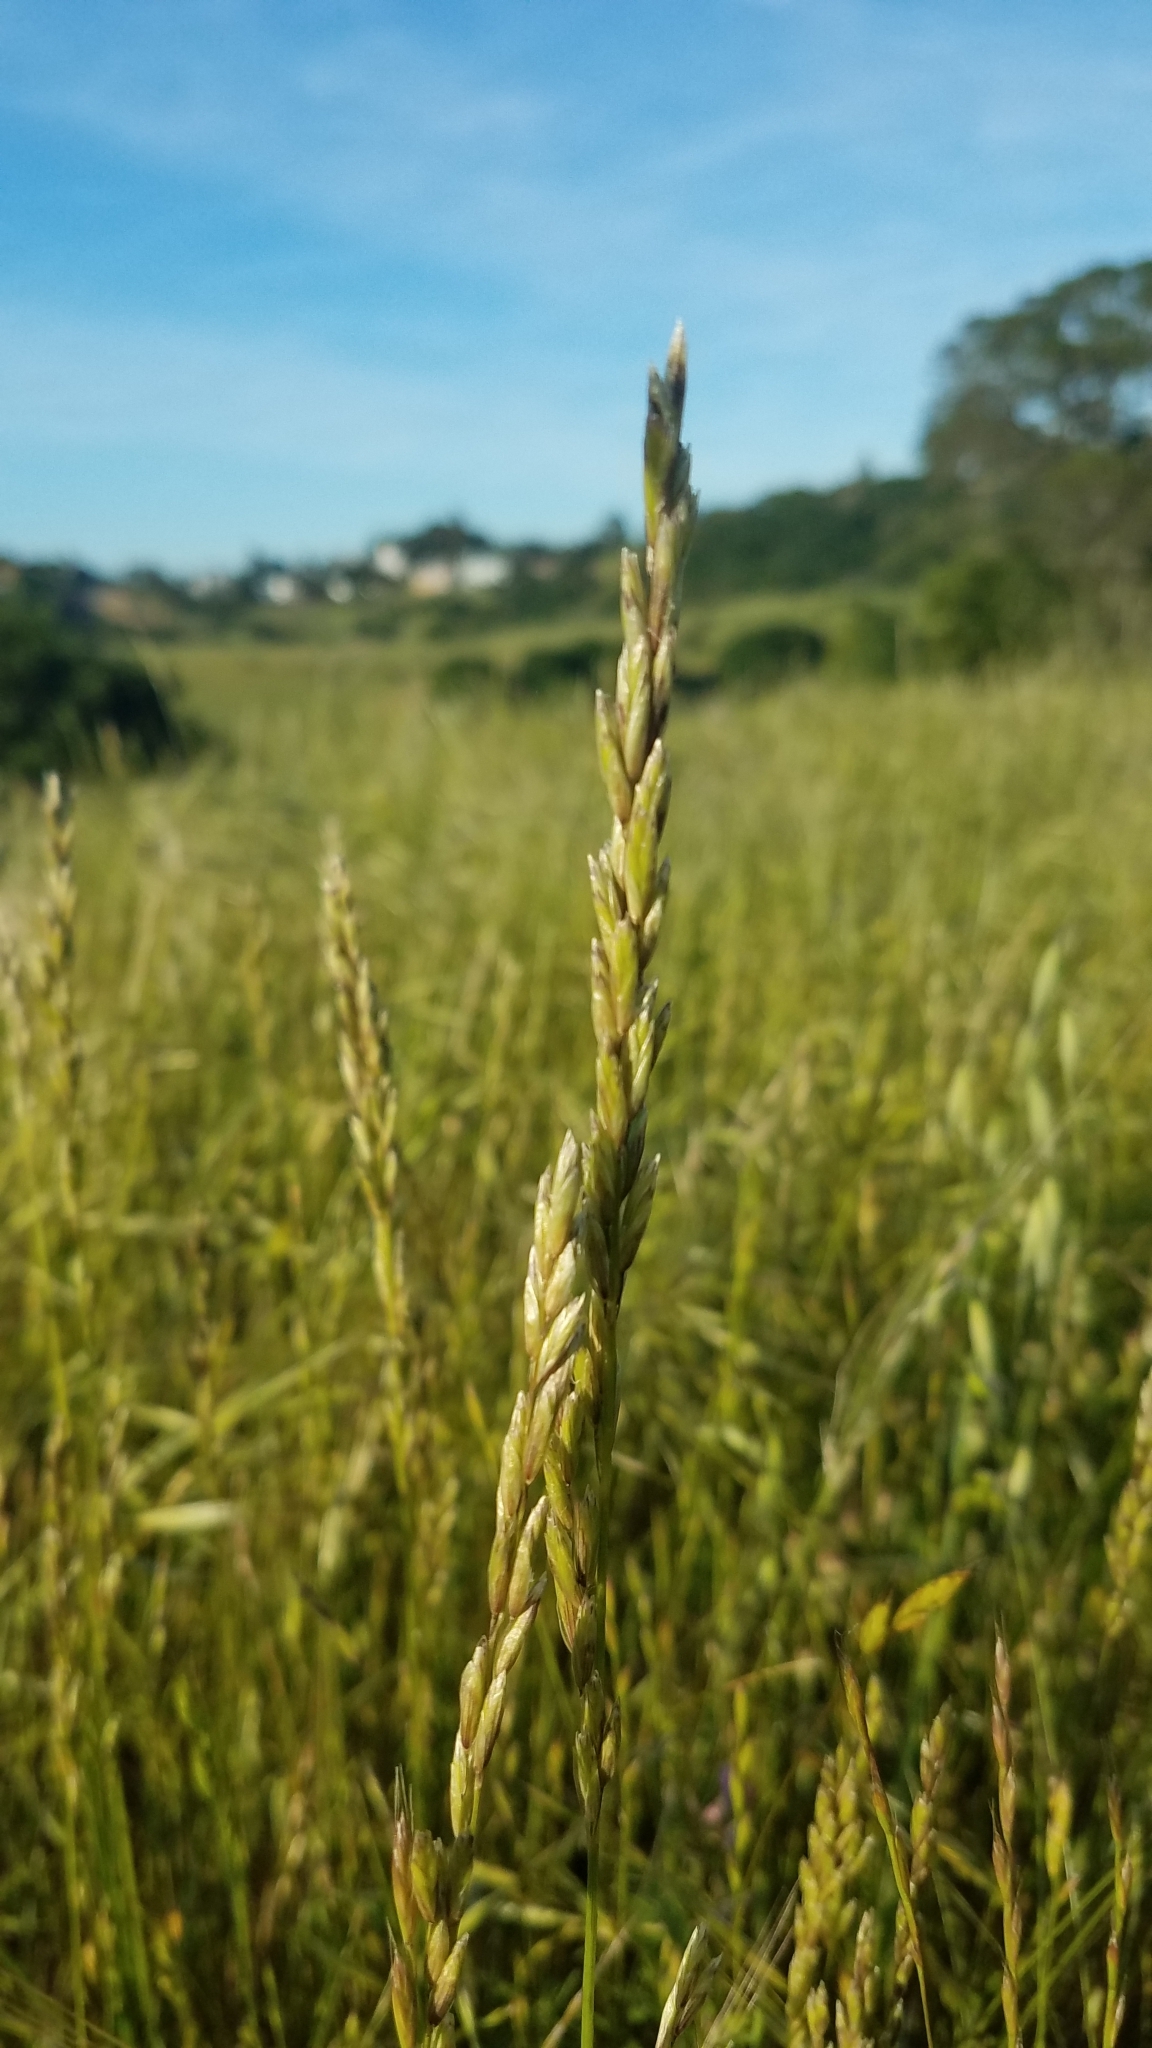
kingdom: Plantae
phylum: Tracheophyta
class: Liliopsida
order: Poales
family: Poaceae
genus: Melica
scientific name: Melica californica
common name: California melic
